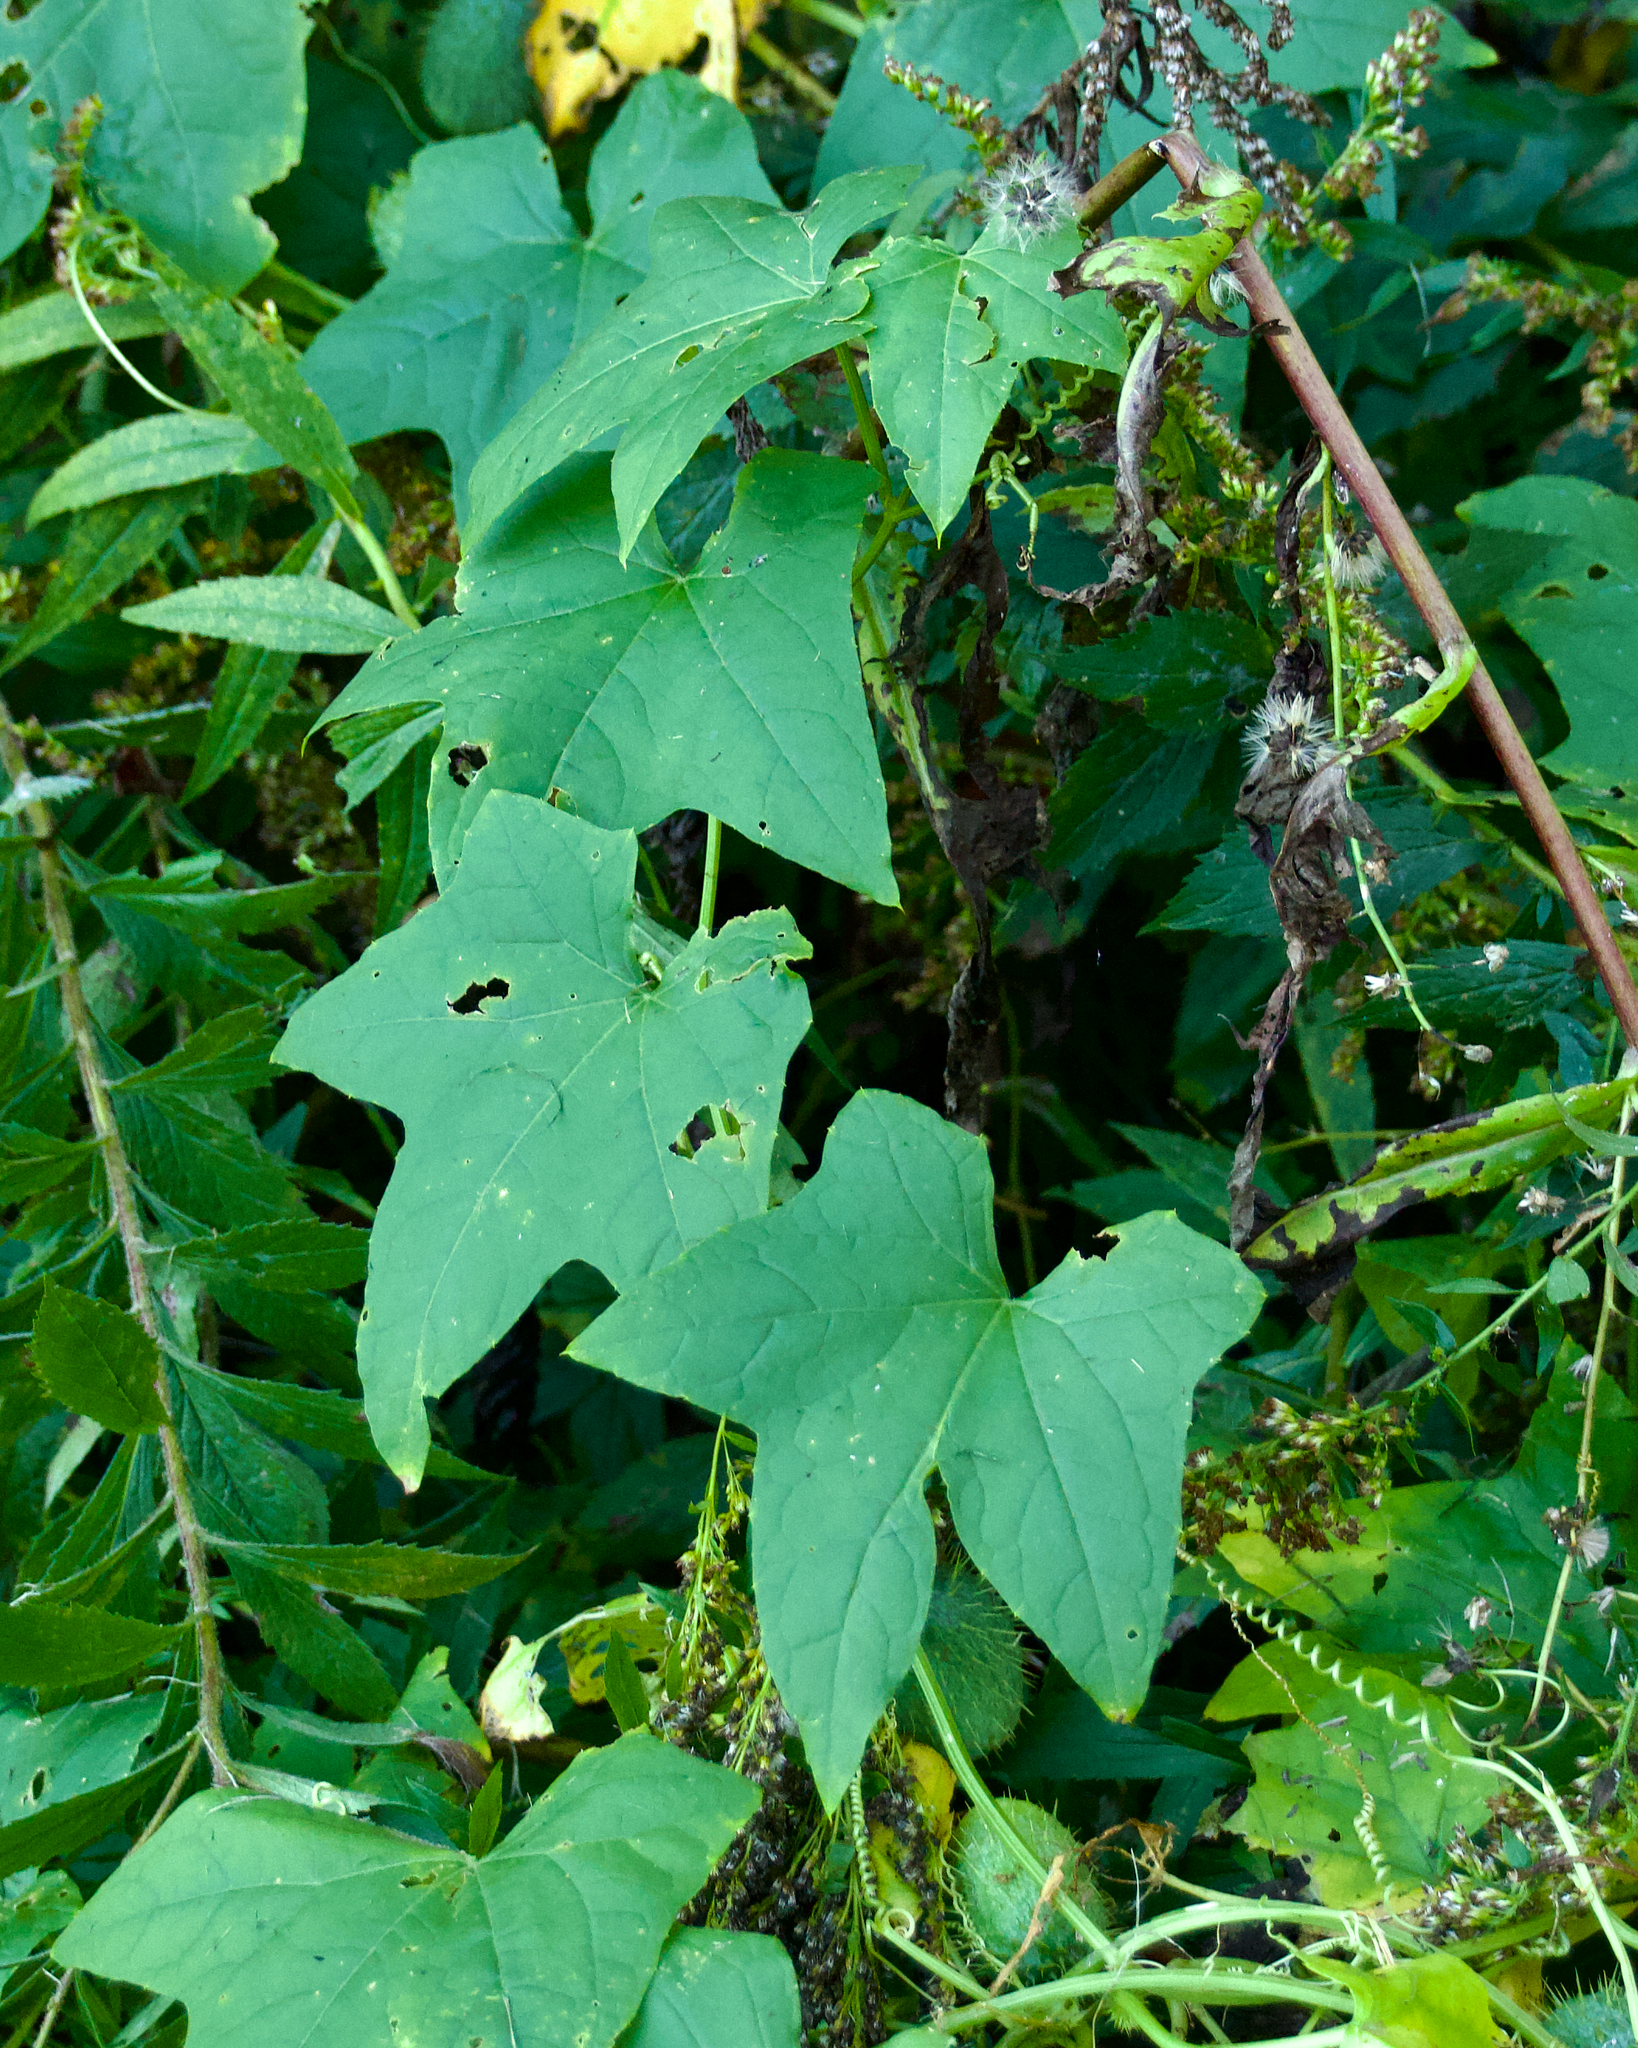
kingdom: Plantae
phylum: Tracheophyta
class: Magnoliopsida
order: Cucurbitales
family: Cucurbitaceae
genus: Echinocystis
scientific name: Echinocystis lobata
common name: Wild cucumber
